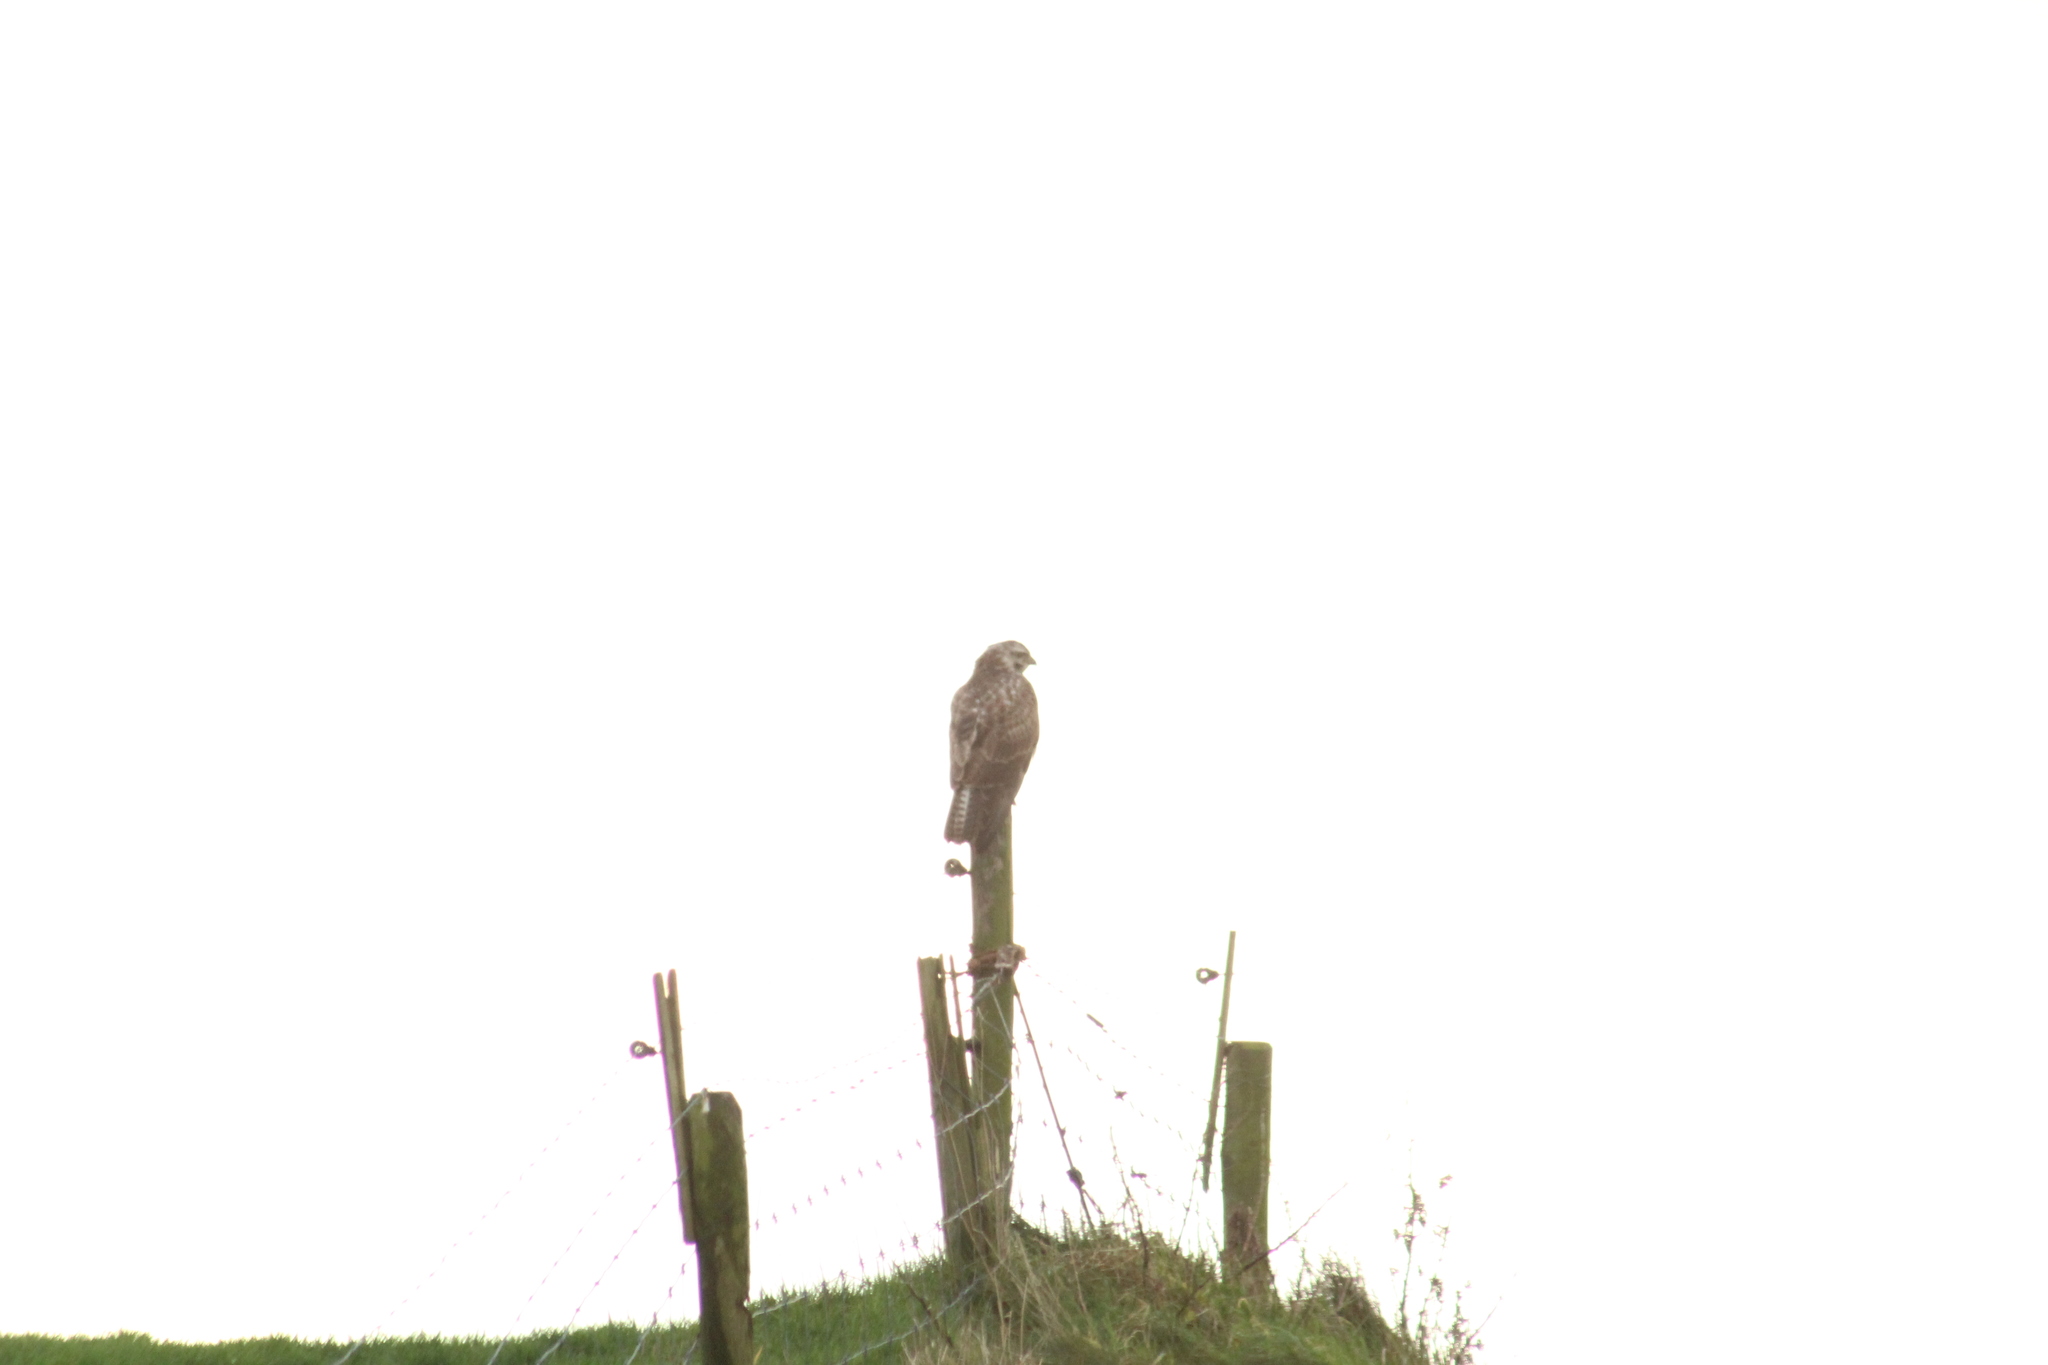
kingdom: Animalia
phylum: Chordata
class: Aves
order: Accipitriformes
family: Accipitridae
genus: Buteo
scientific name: Buteo buteo
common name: Common buzzard
